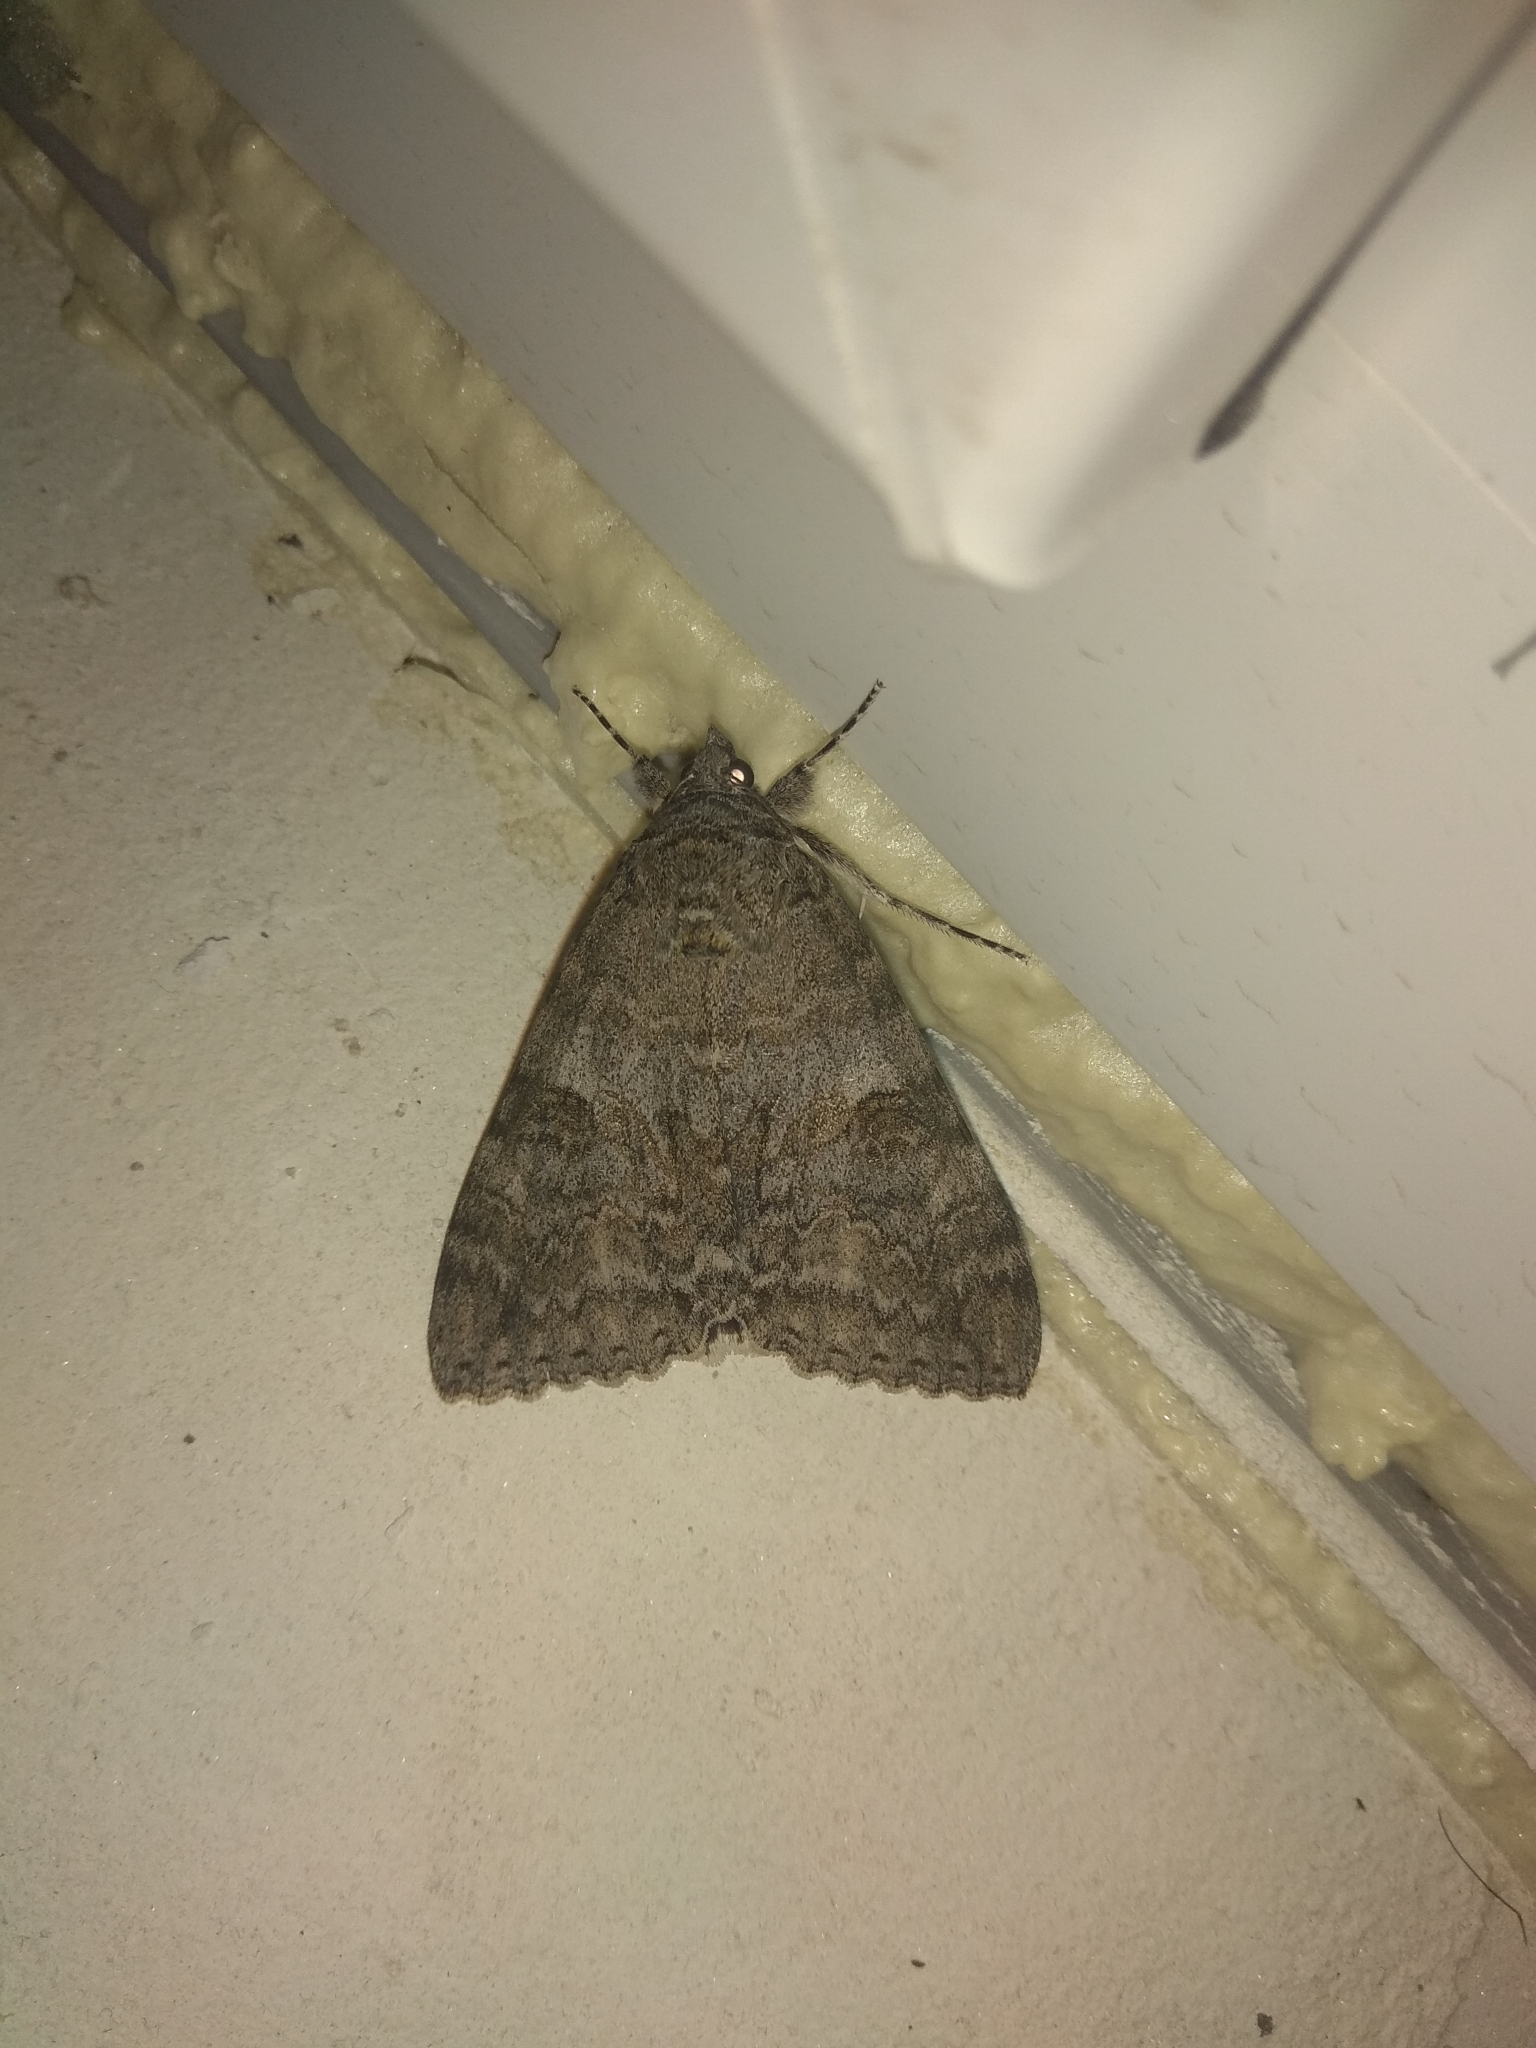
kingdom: Animalia
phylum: Arthropoda
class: Insecta
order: Lepidoptera
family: Erebidae
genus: Catocala
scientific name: Catocala nupta
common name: Red underwing
